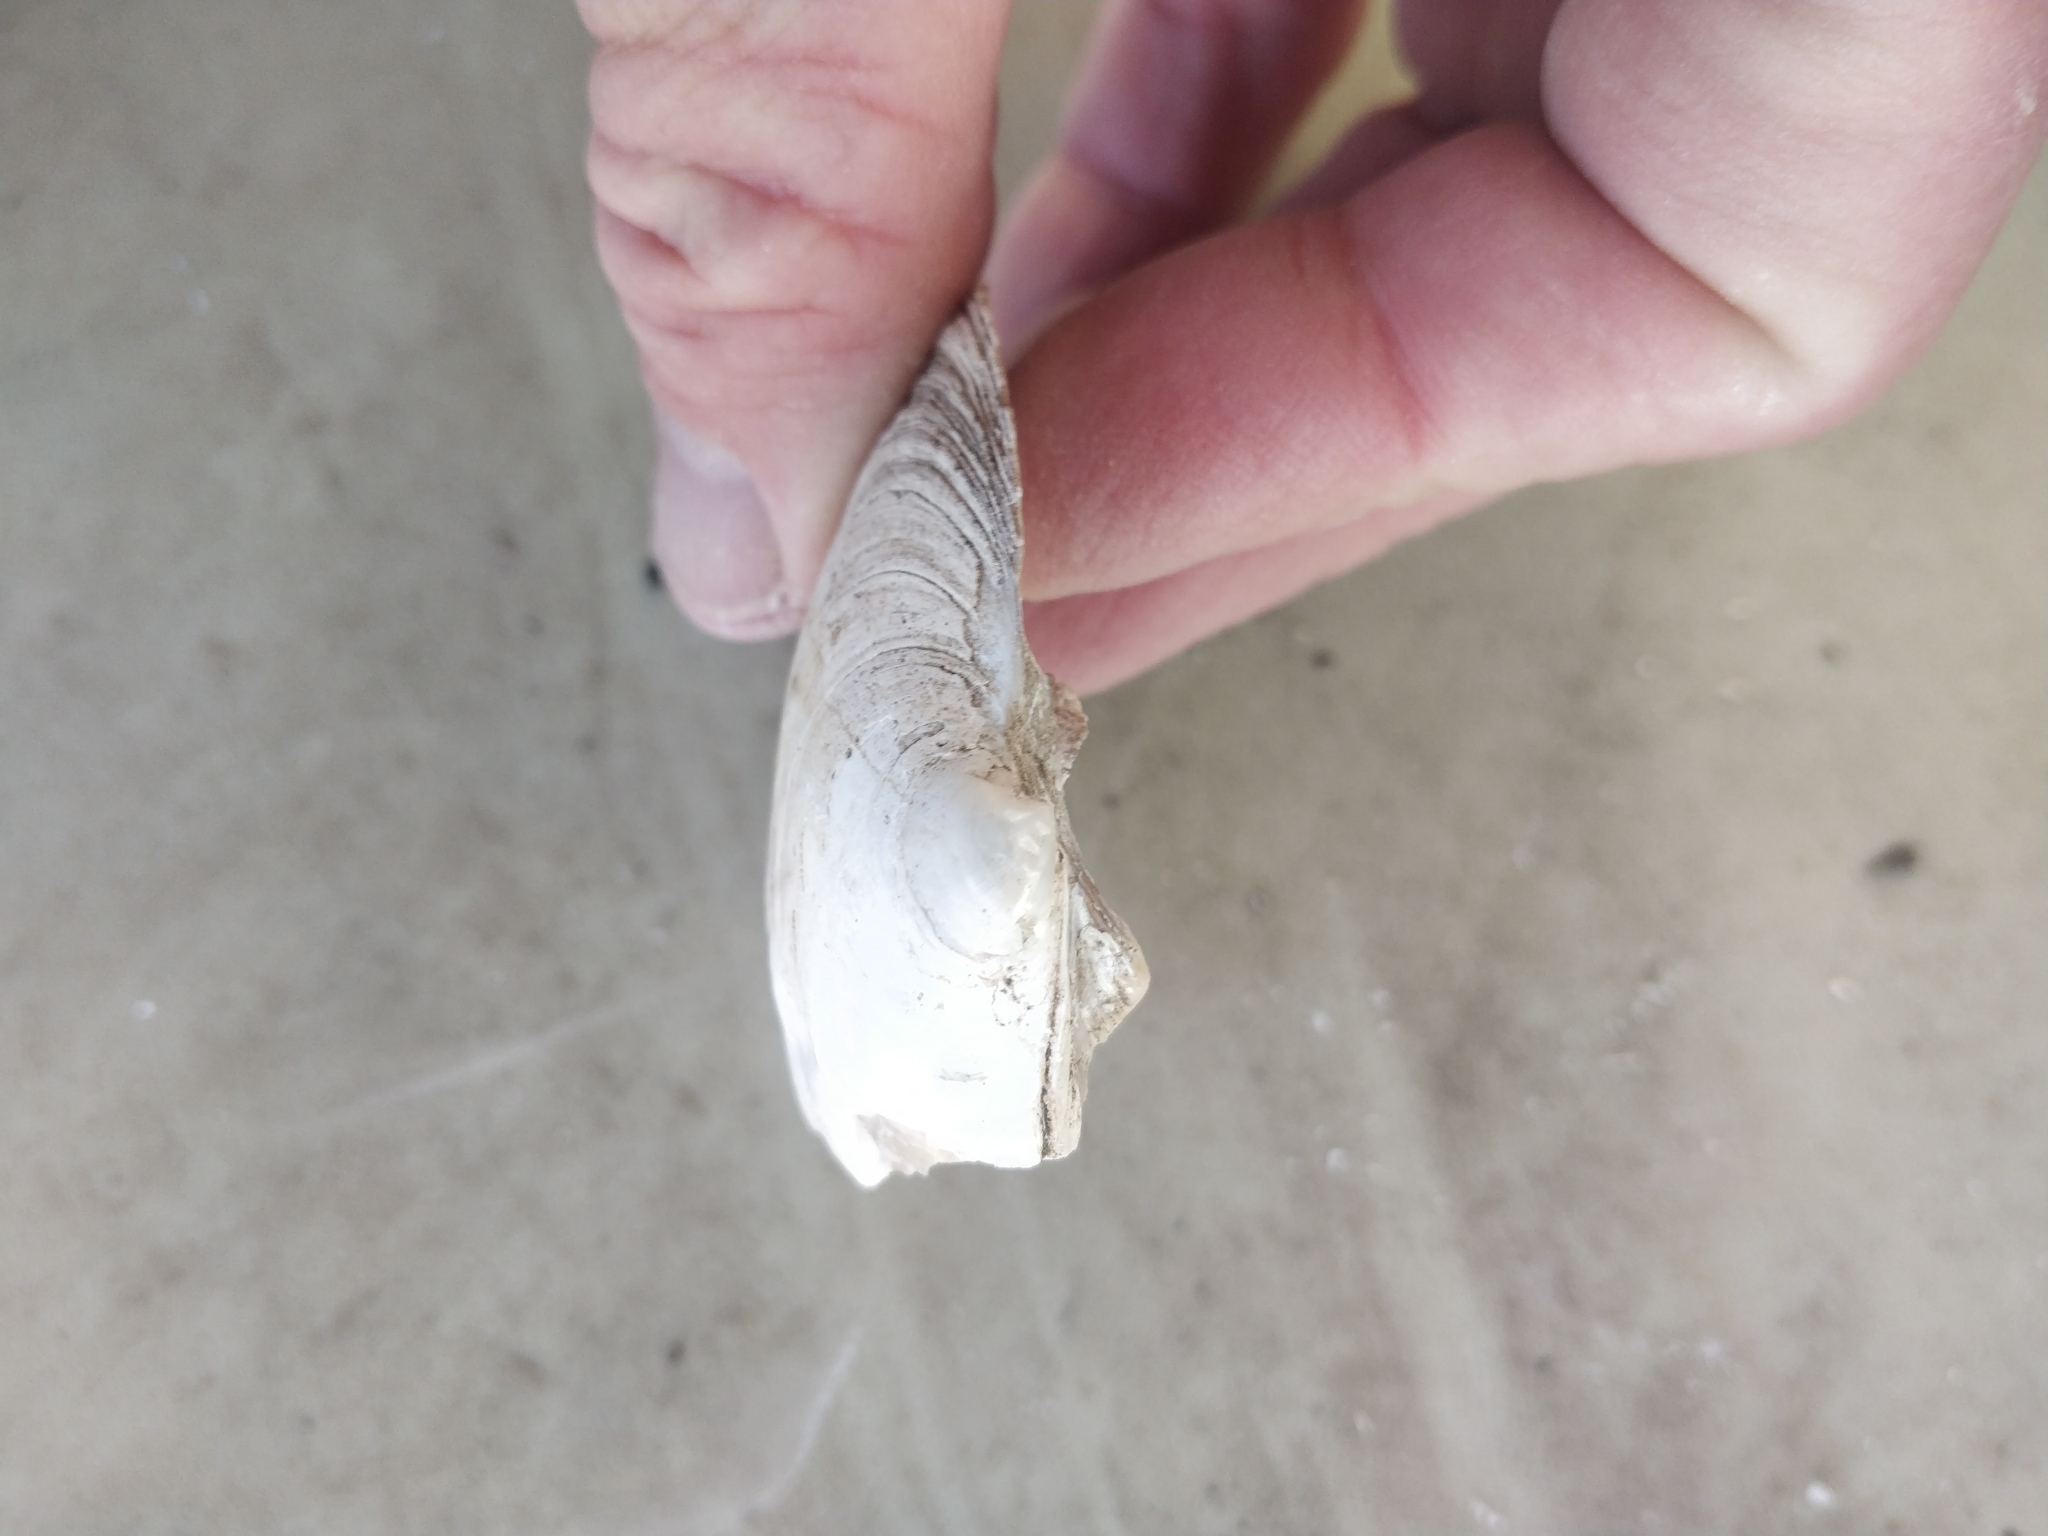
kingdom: Animalia
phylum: Mollusca
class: Bivalvia
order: Unionida
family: Unionidae
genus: Amblema
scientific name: Amblema plicata
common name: Threeridge
